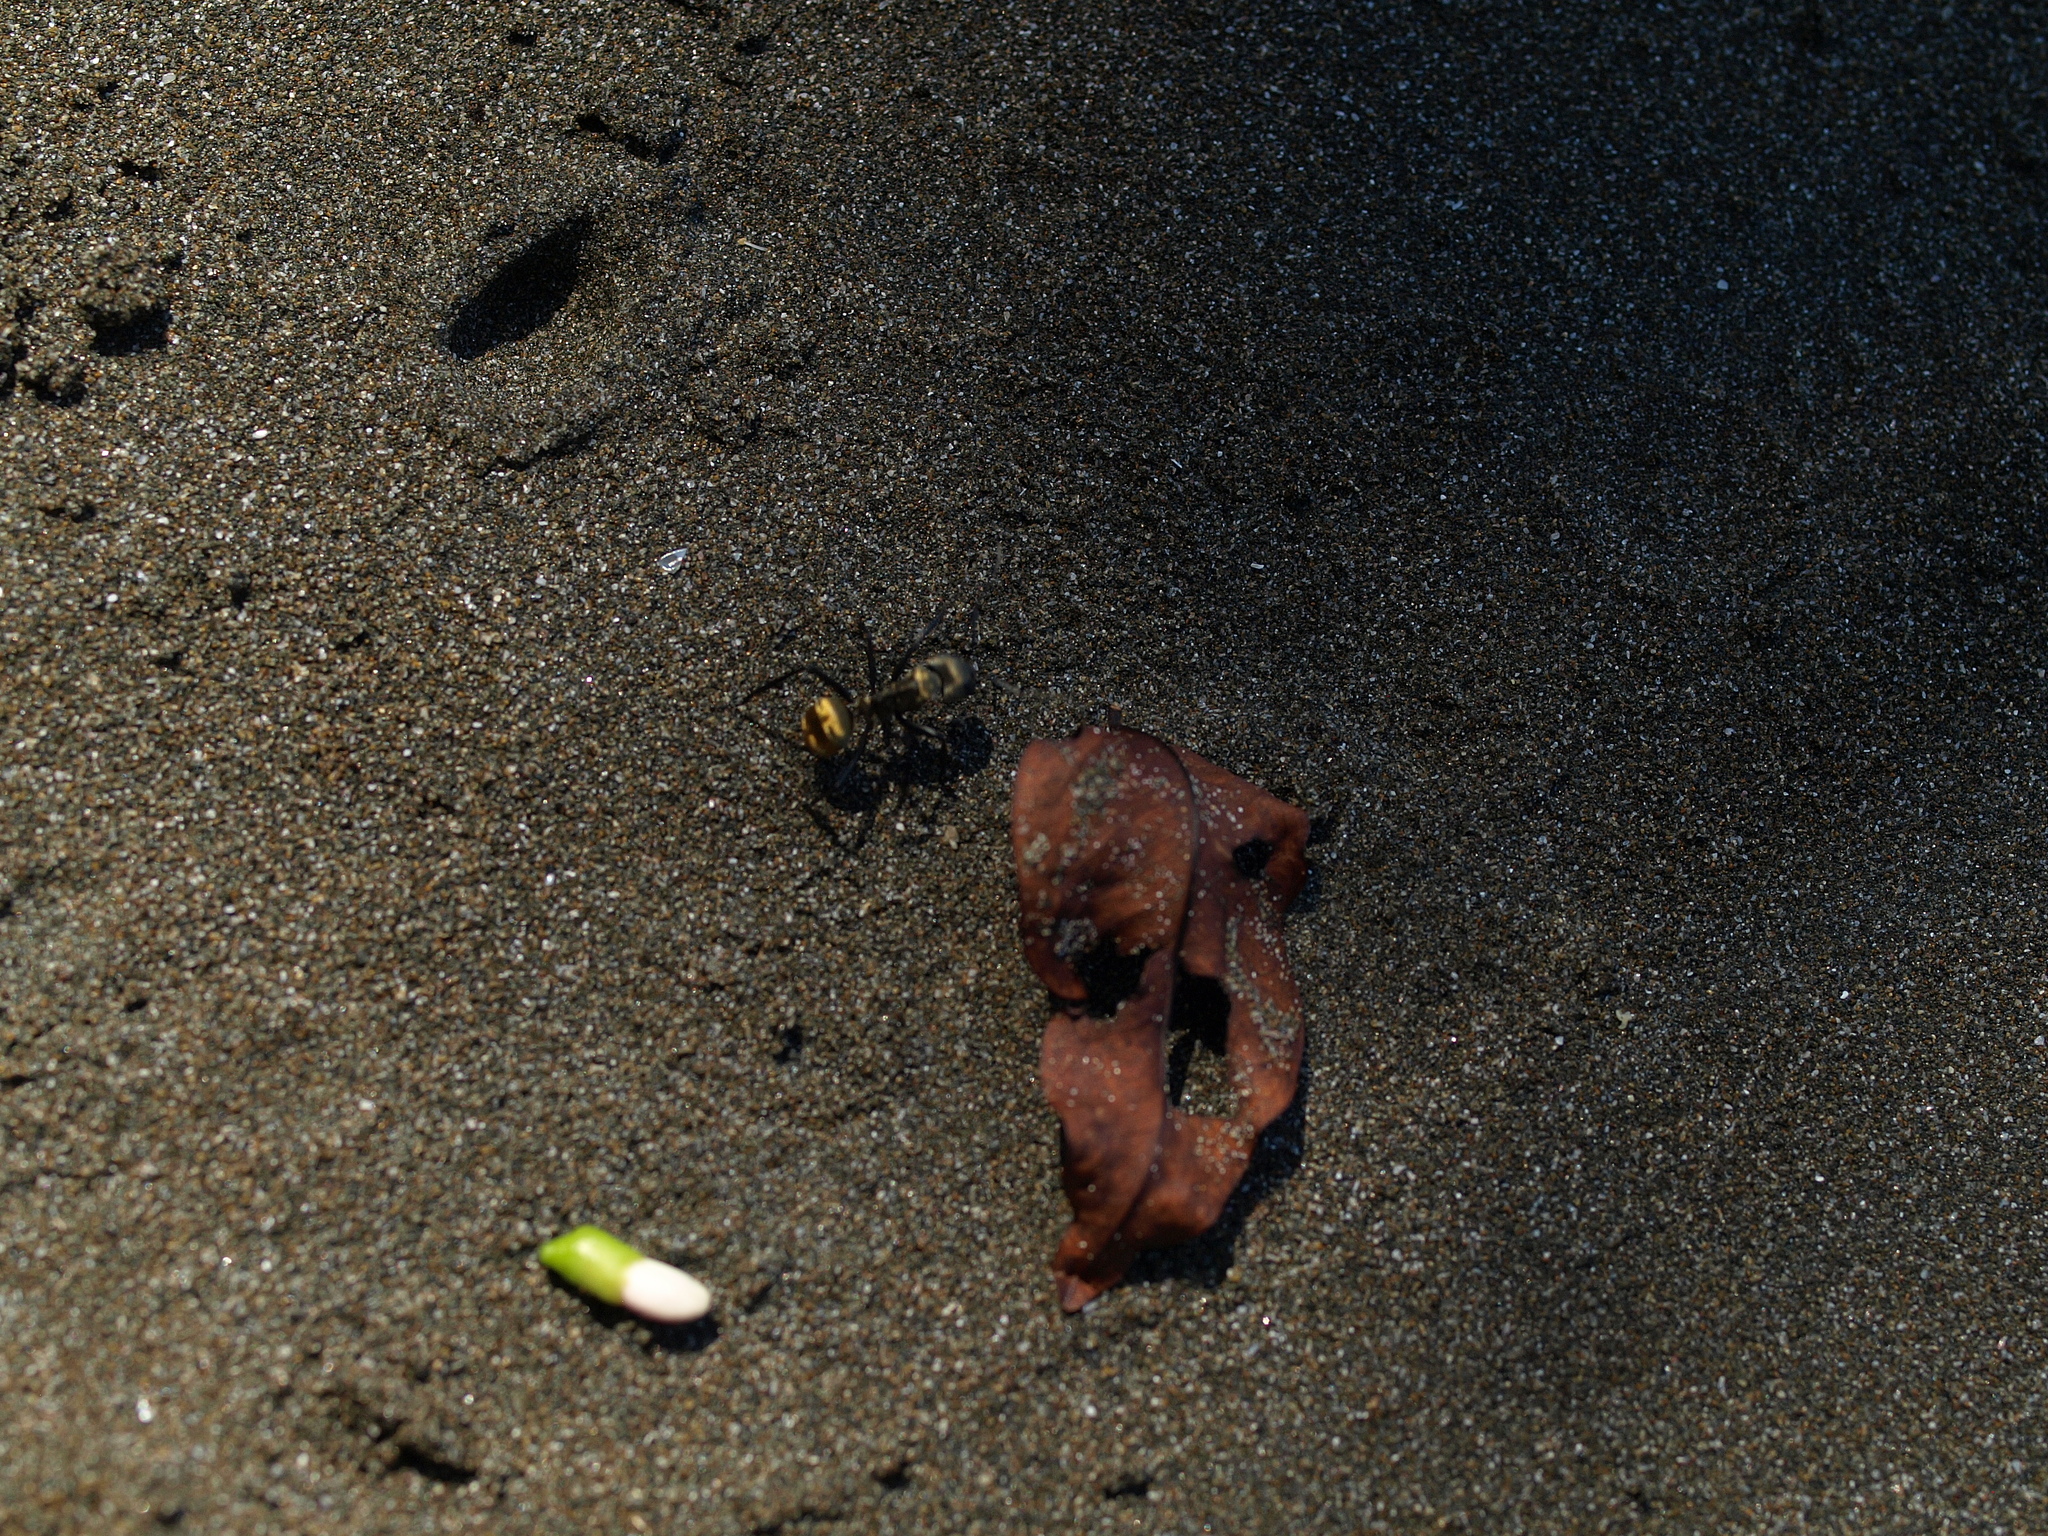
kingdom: Animalia
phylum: Arthropoda
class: Insecta
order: Hymenoptera
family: Formicidae
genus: Camponotus
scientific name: Camponotus sericeiventris
